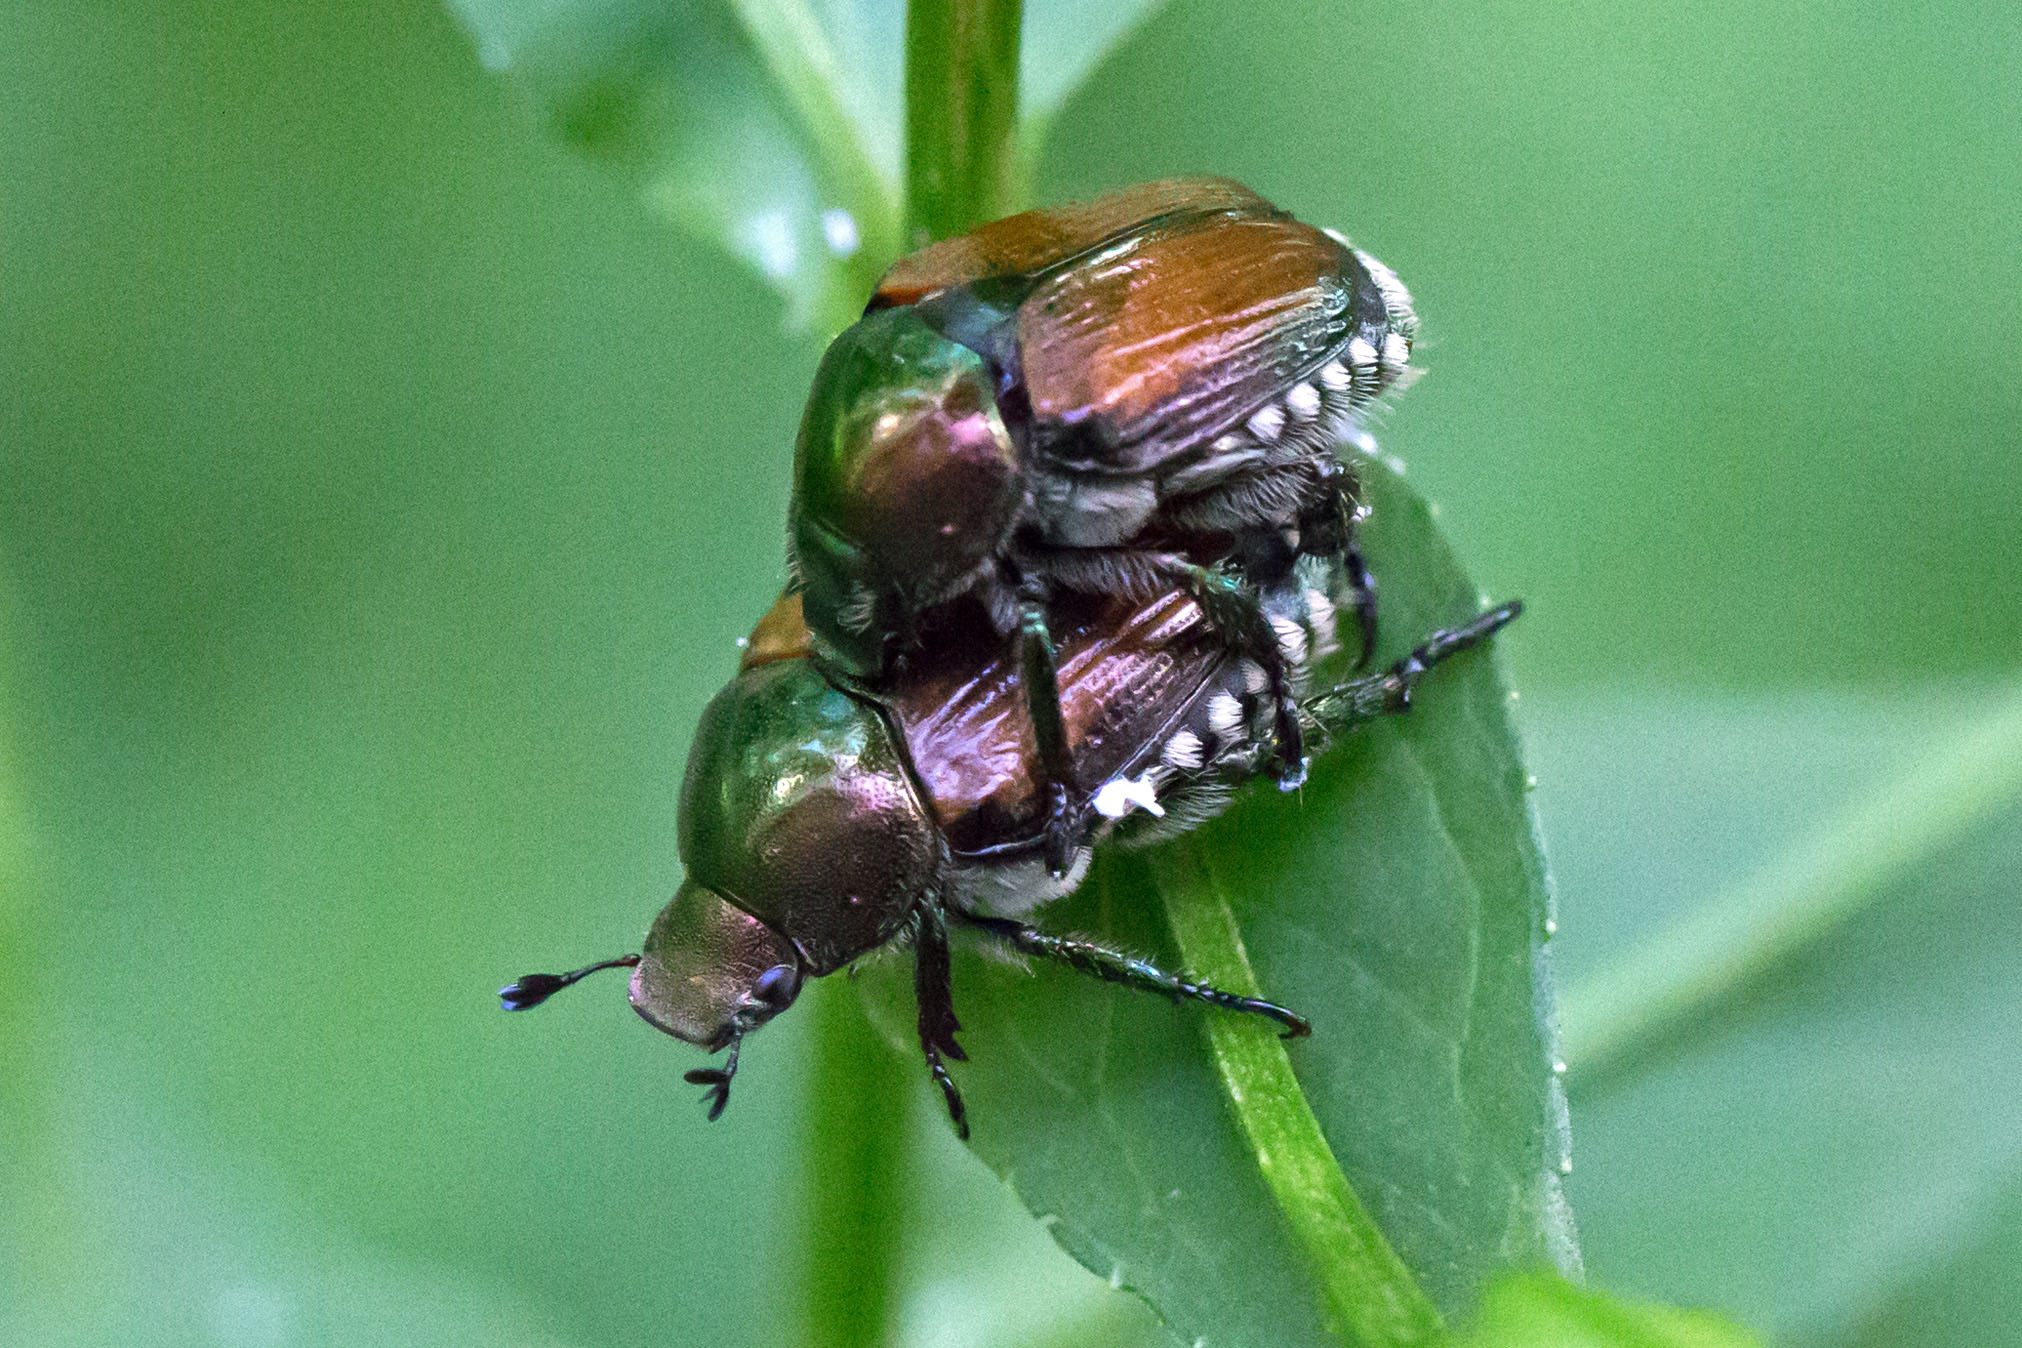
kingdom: Animalia
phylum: Arthropoda
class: Insecta
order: Coleoptera
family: Scarabaeidae
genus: Popillia
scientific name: Popillia japonica
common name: Japanese beetle
